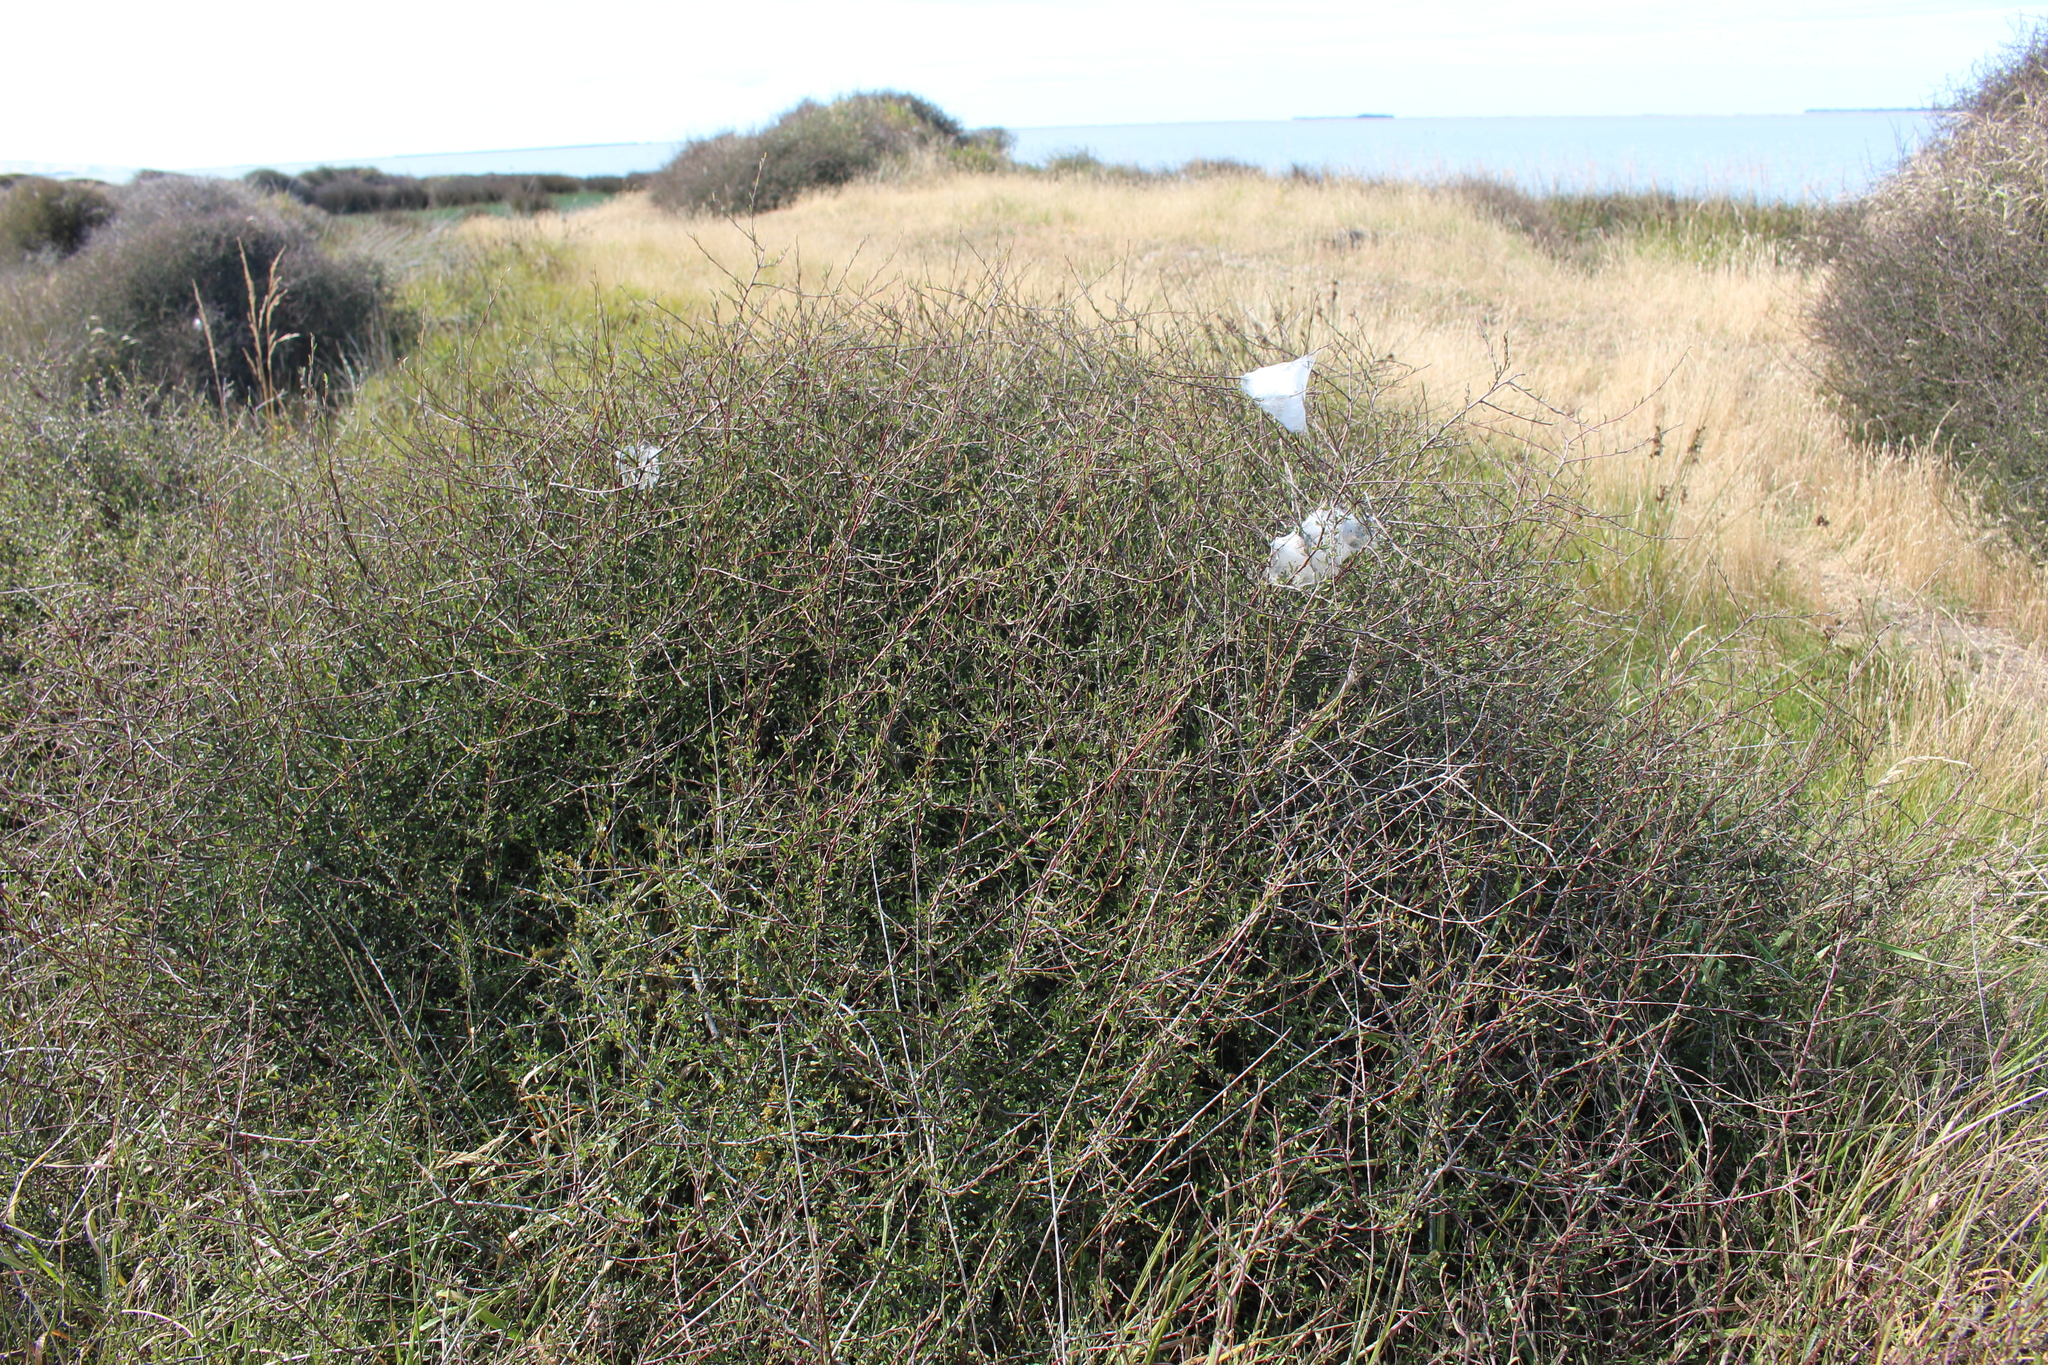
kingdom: Animalia
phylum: Arthropoda
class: Arachnida
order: Araneae
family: Pisauridae
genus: Dolomedes
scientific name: Dolomedes minor
